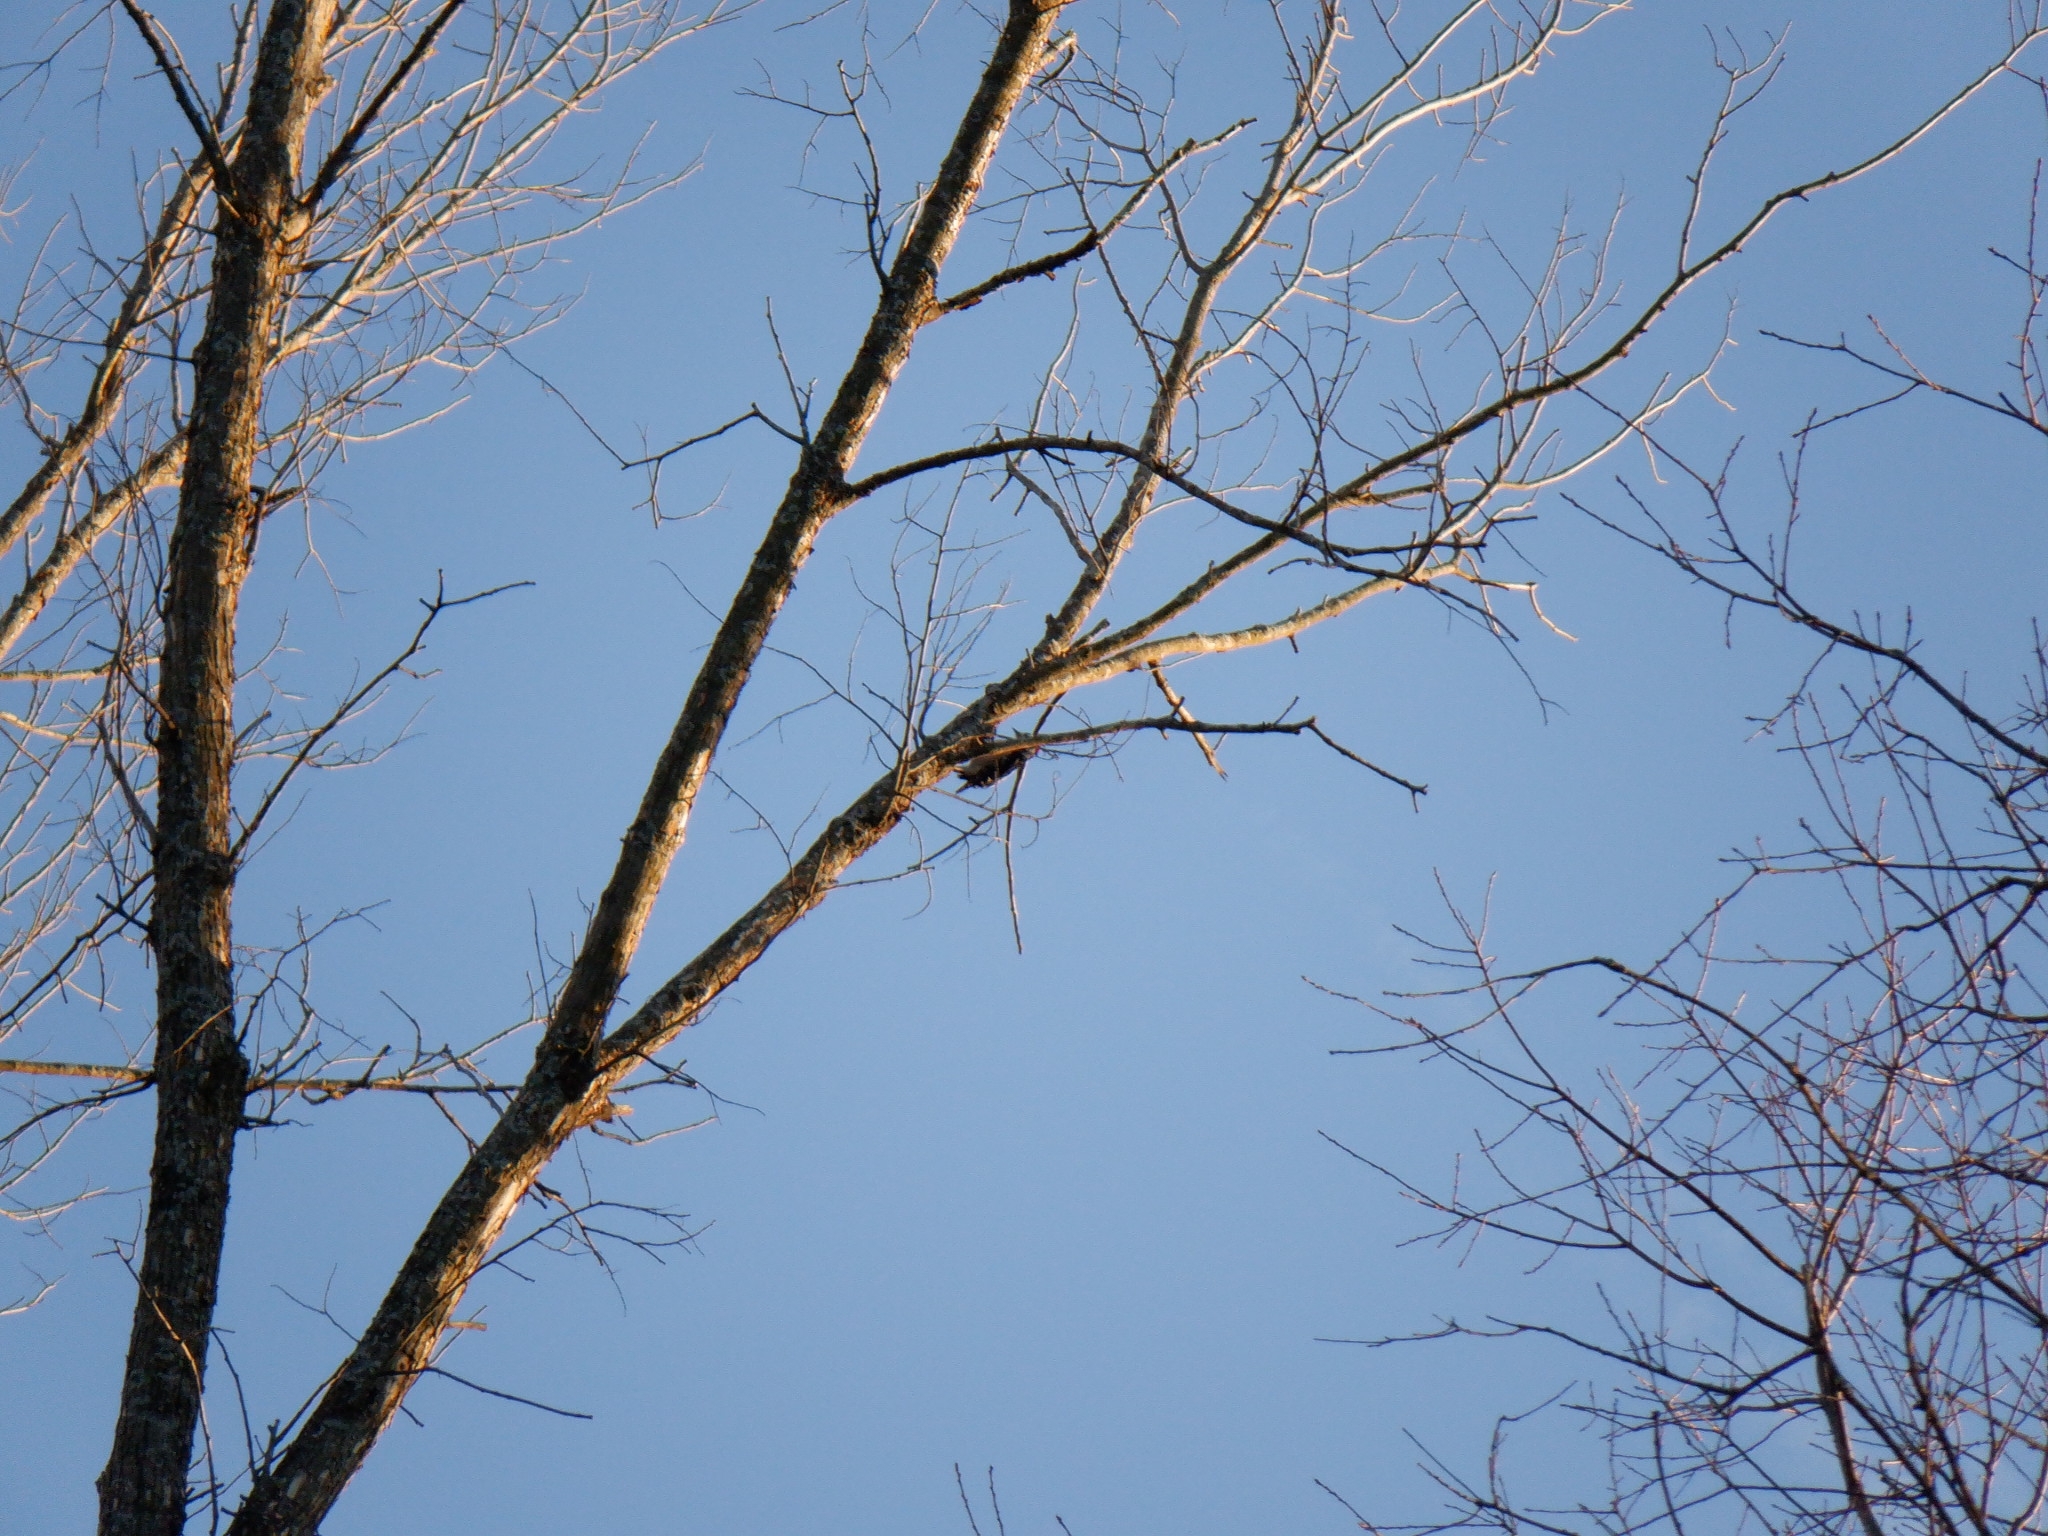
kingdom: Animalia
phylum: Chordata
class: Aves
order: Piciformes
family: Picidae
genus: Dryobates
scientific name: Dryobates pubescens
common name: Downy woodpecker
